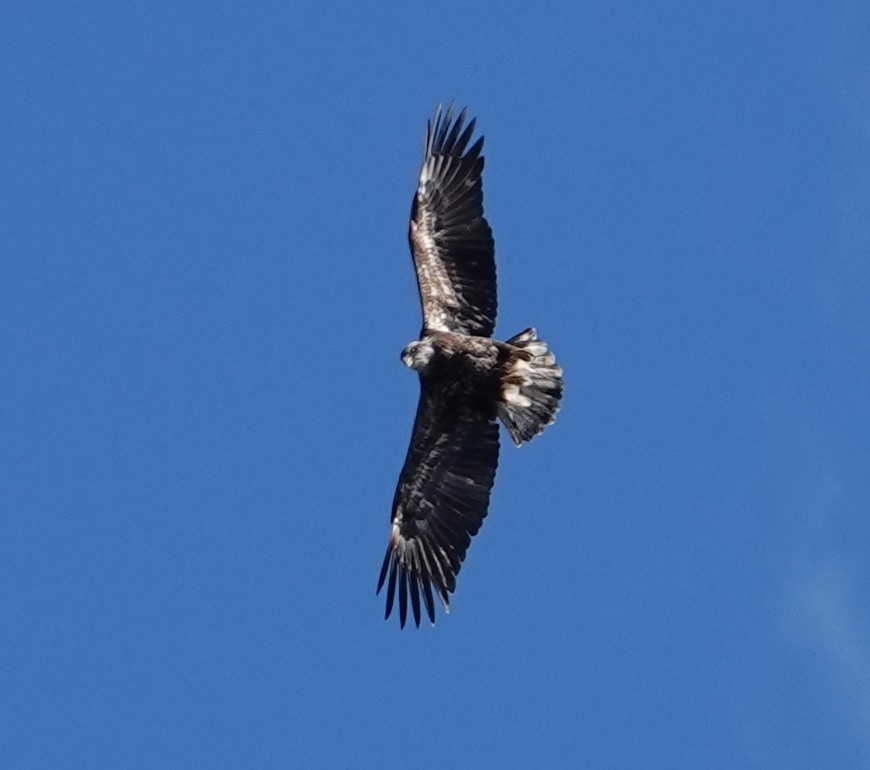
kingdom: Animalia
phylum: Chordata
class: Aves
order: Accipitriformes
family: Accipitridae
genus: Haliaeetus
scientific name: Haliaeetus leucocephalus
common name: Bald eagle
